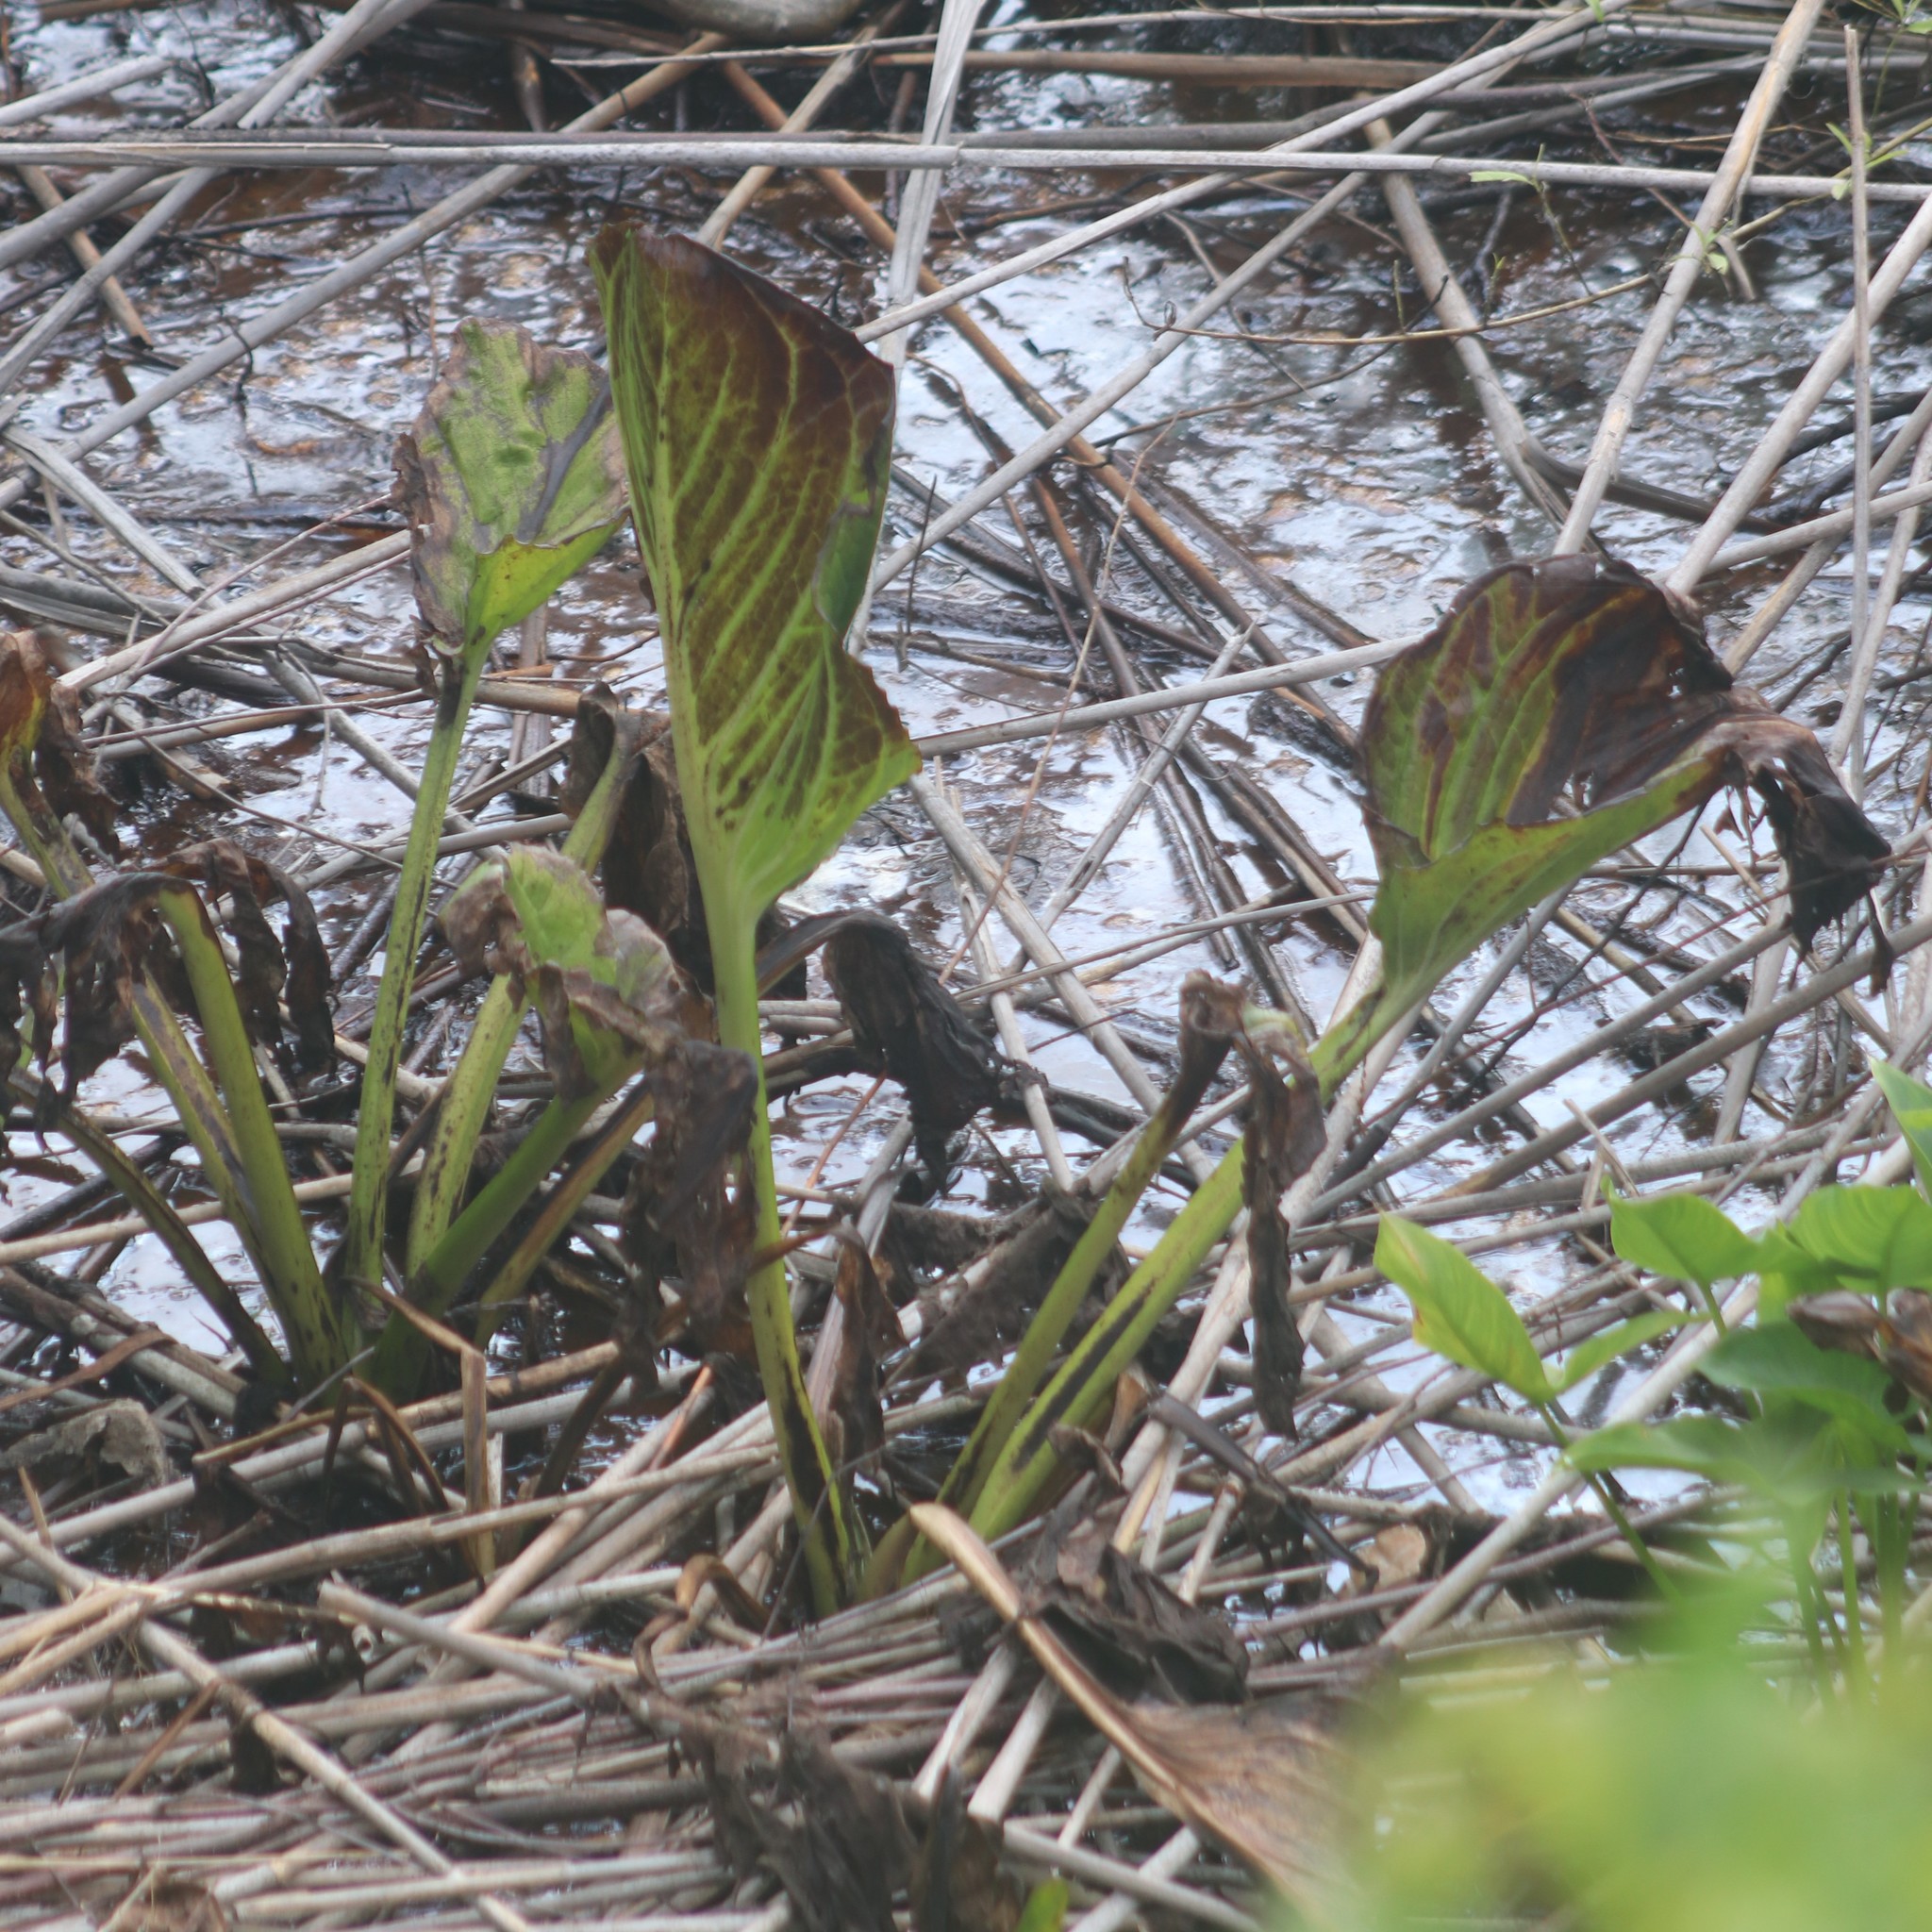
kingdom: Plantae
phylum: Tracheophyta
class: Liliopsida
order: Alismatales
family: Araceae
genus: Symplocarpus
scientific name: Symplocarpus foetidus
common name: Eastern skunk cabbage
